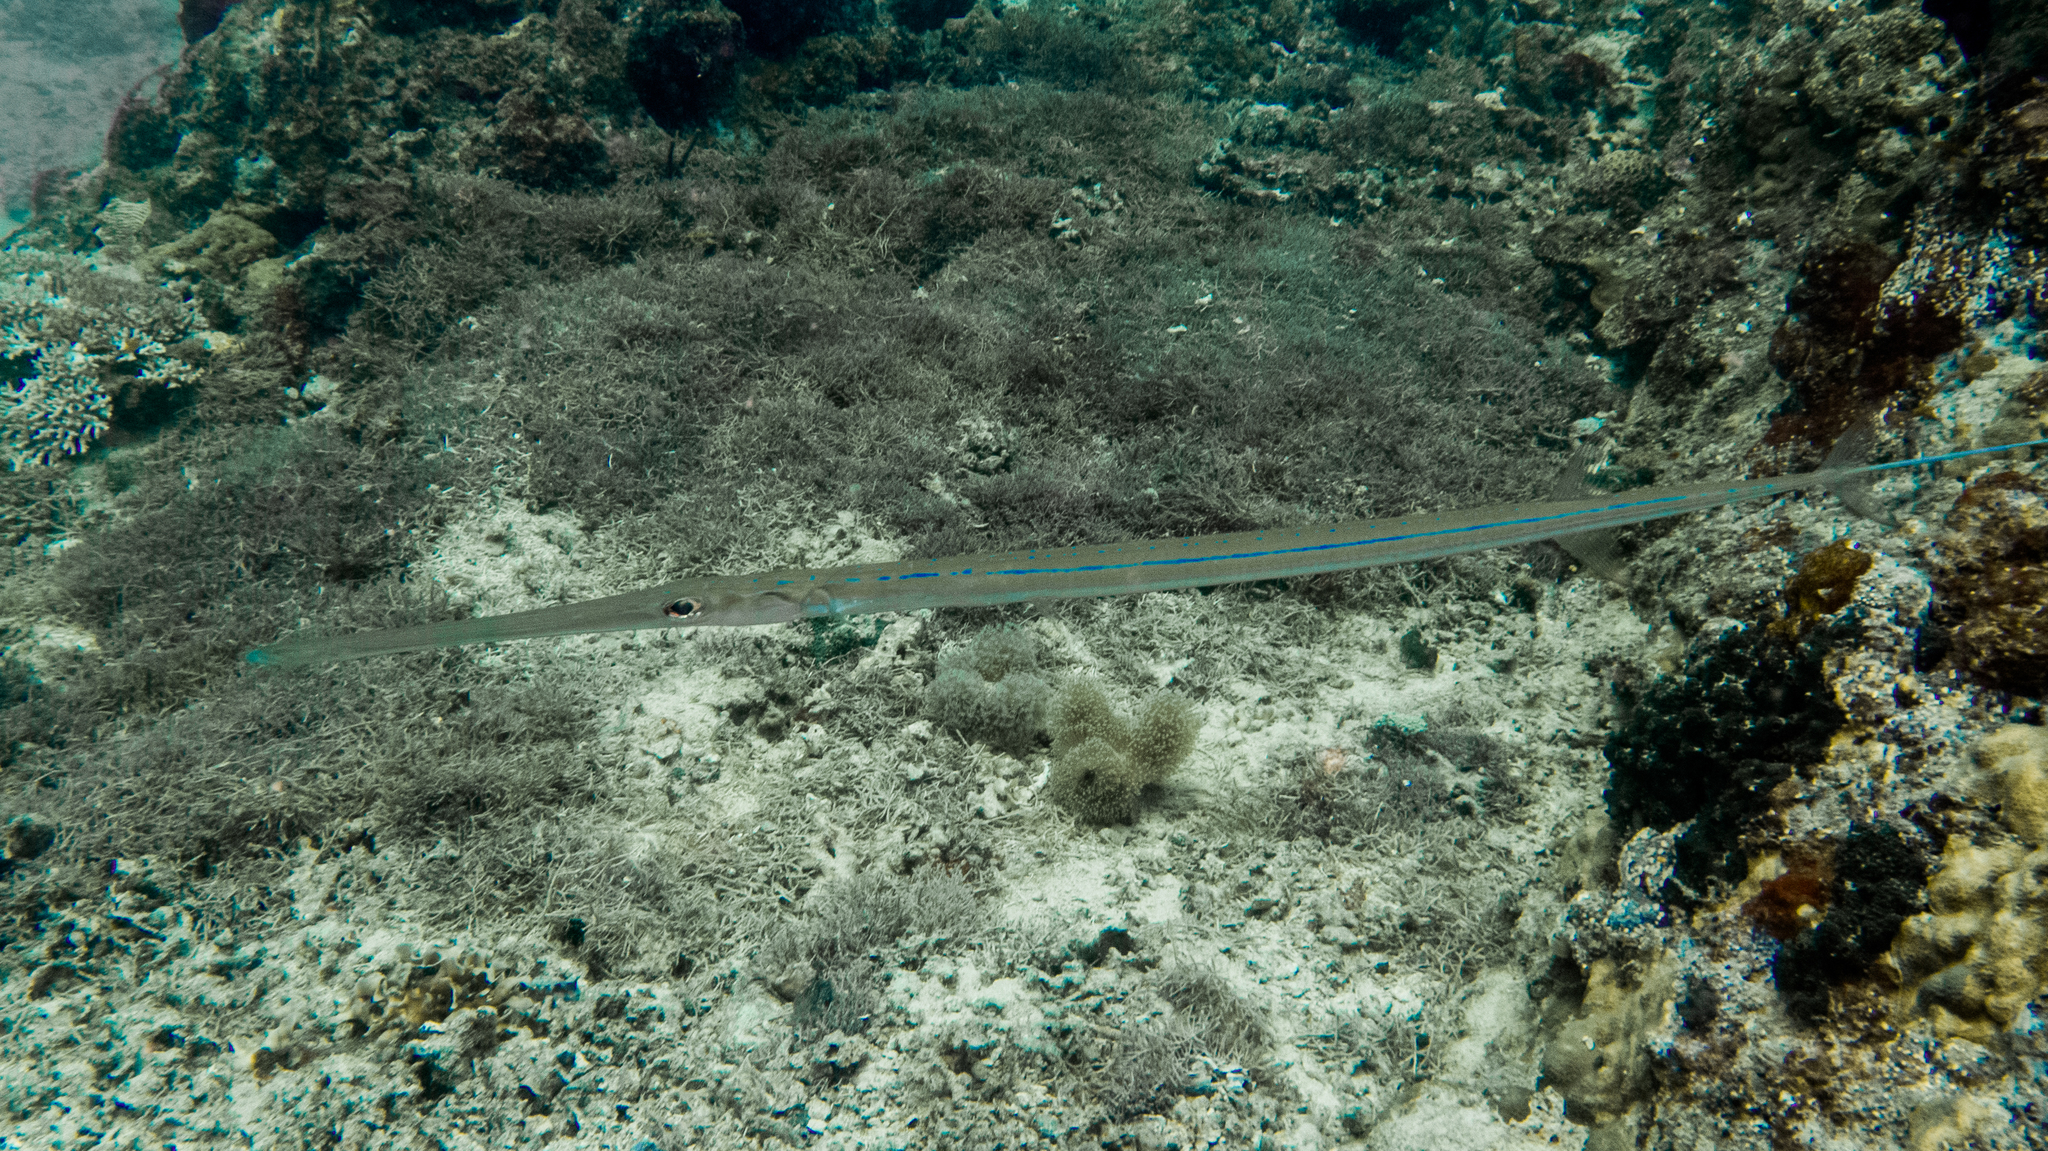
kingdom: Animalia
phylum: Chordata
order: Syngnathiformes
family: Fistulariidae
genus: Fistularia
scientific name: Fistularia commersonii
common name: Bluespotted cornetfish
